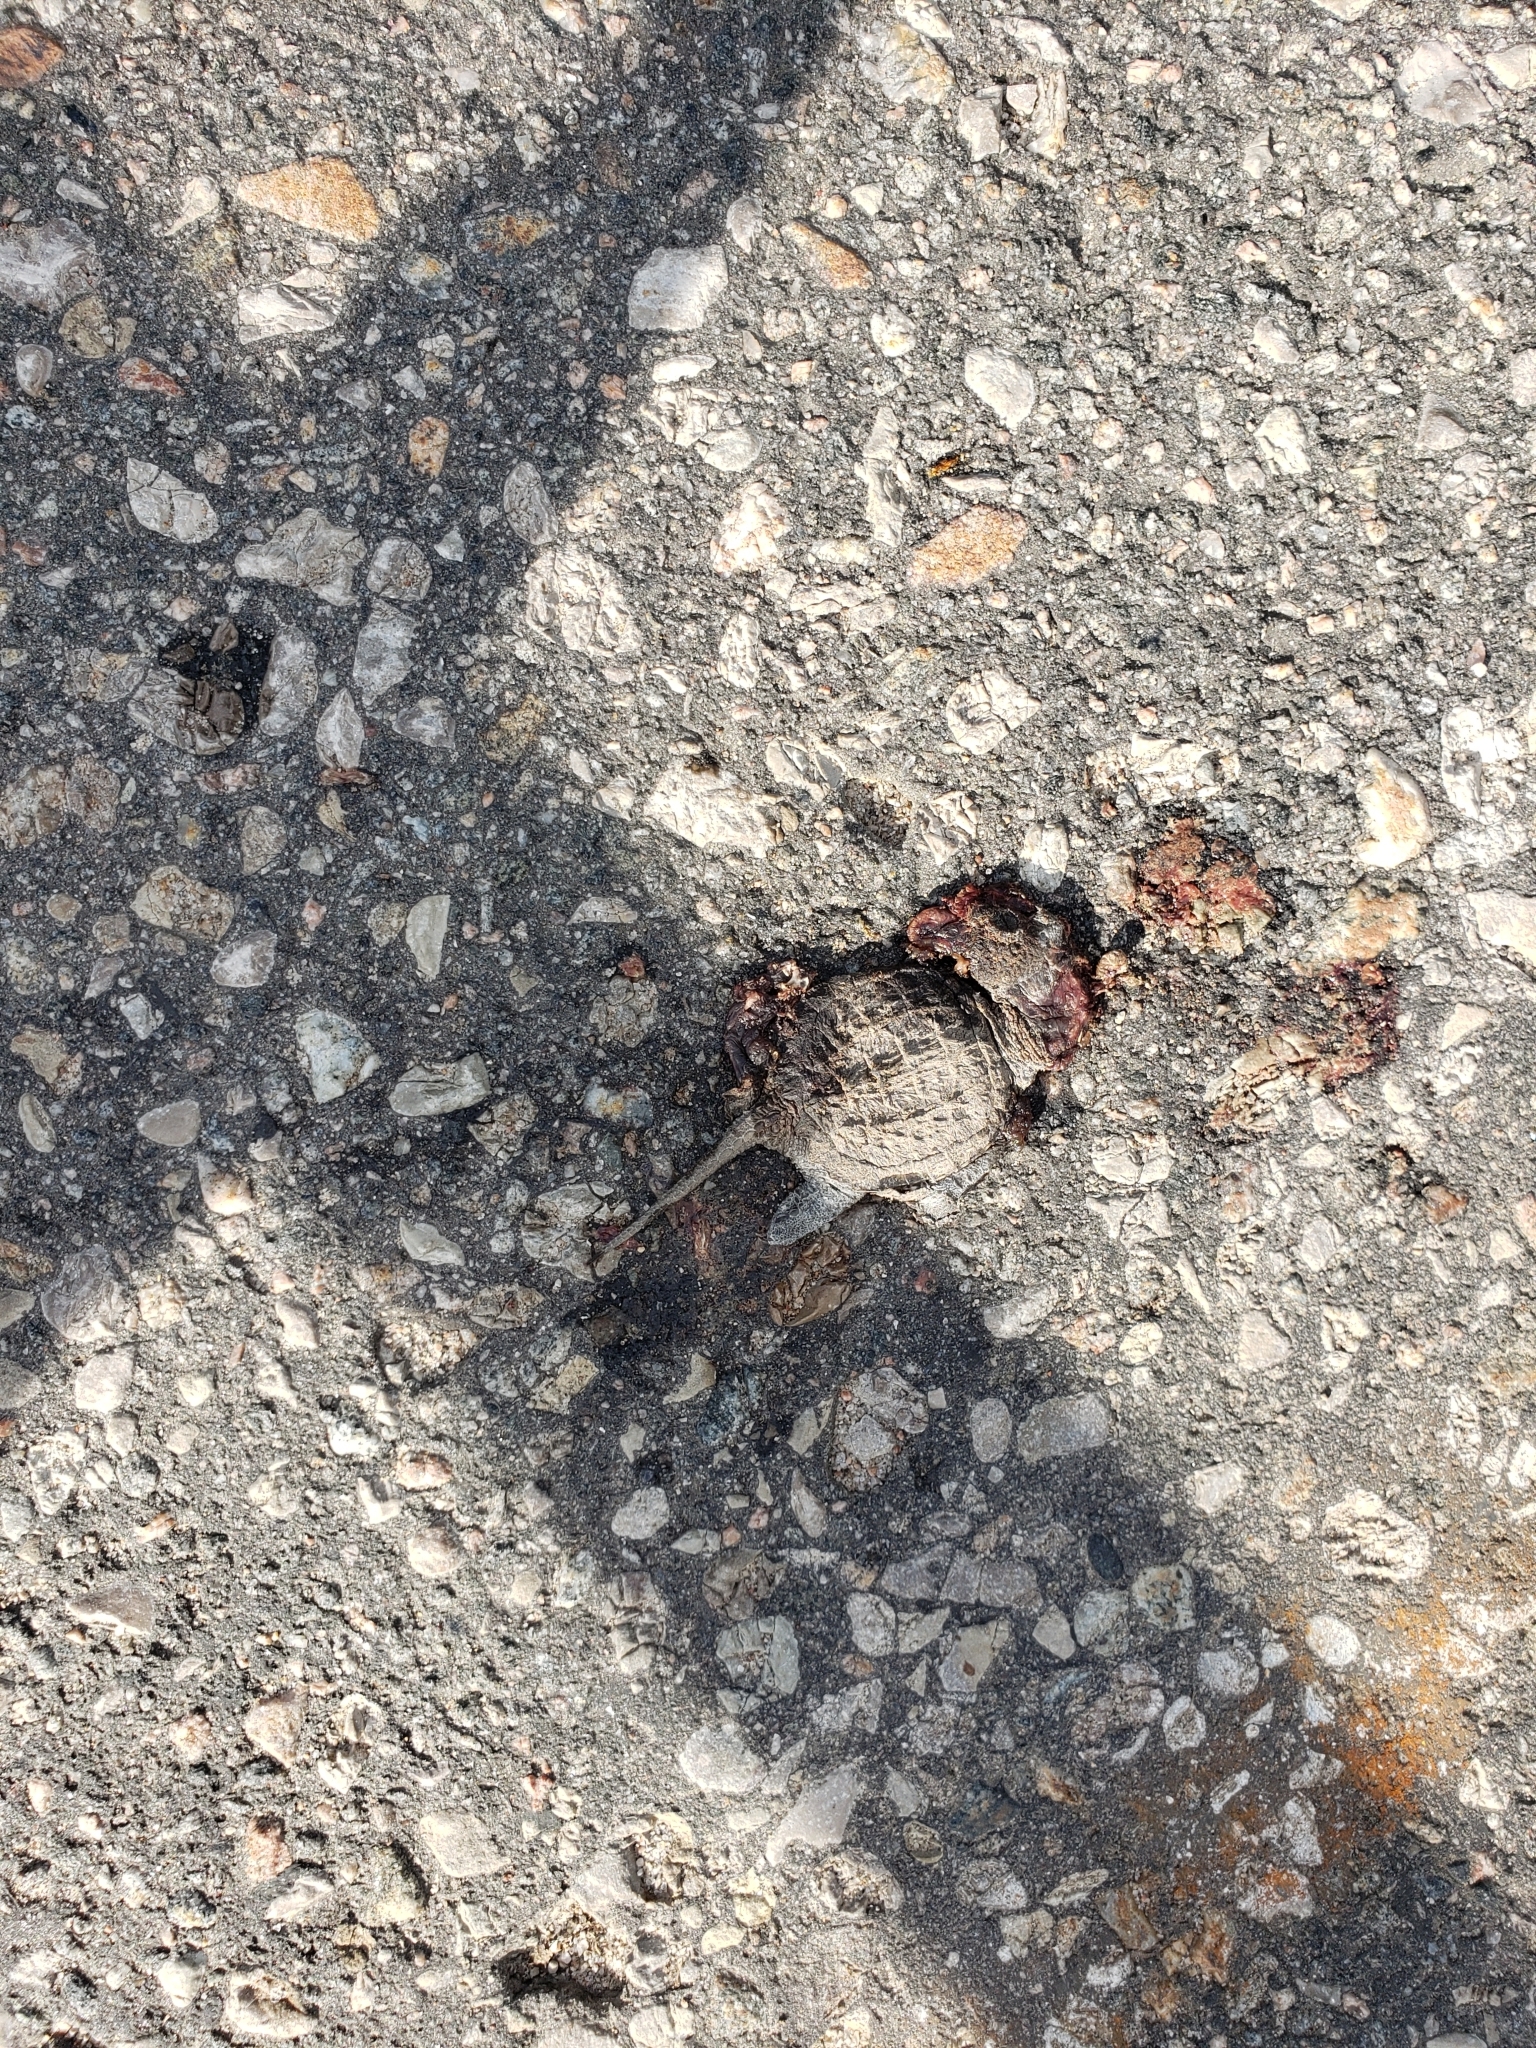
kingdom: Animalia
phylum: Chordata
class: Testudines
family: Chelydridae
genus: Chelydra
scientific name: Chelydra serpentina
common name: Common snapping turtle
